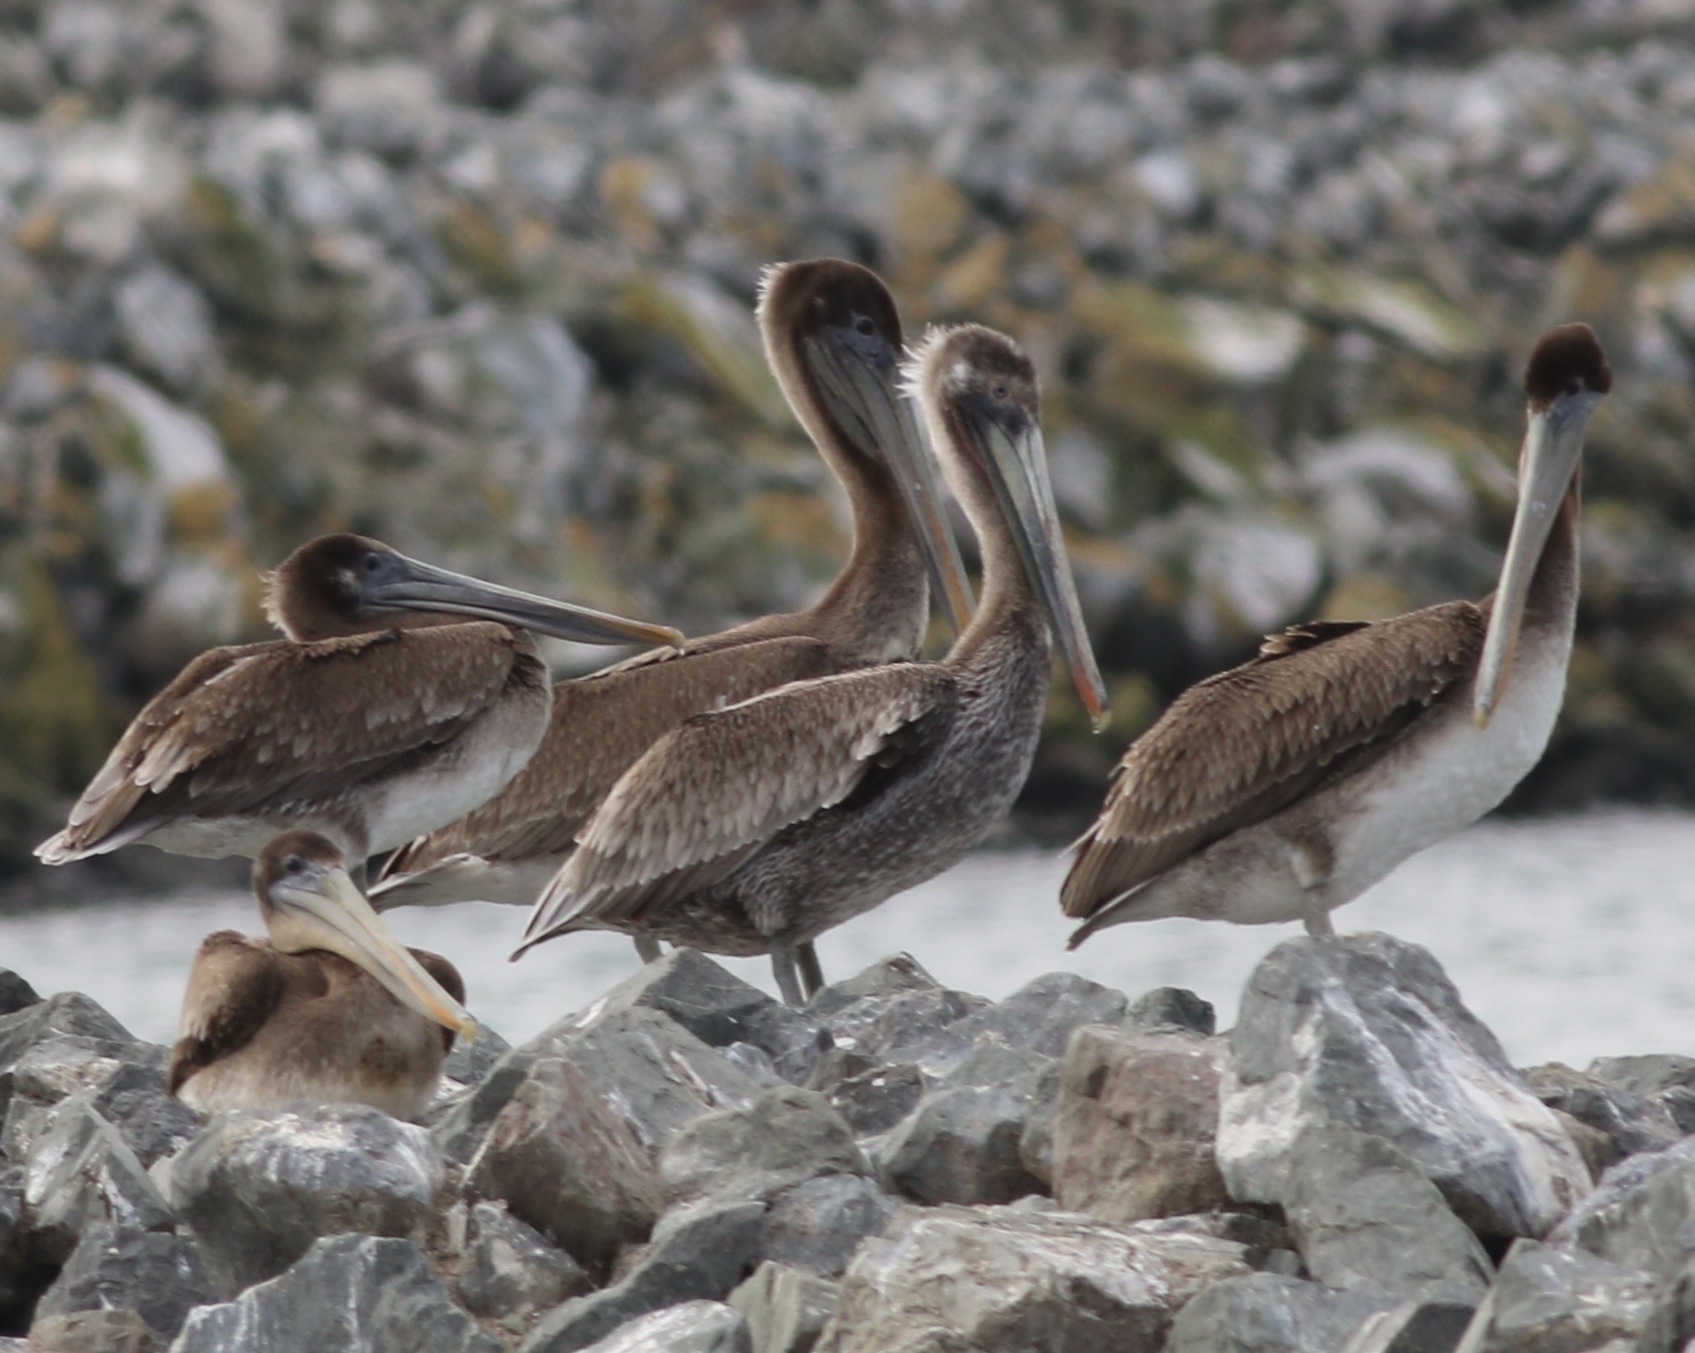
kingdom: Animalia
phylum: Chordata
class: Aves
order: Pelecaniformes
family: Pelecanidae
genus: Pelecanus
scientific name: Pelecanus occidentalis
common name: Brown pelican
